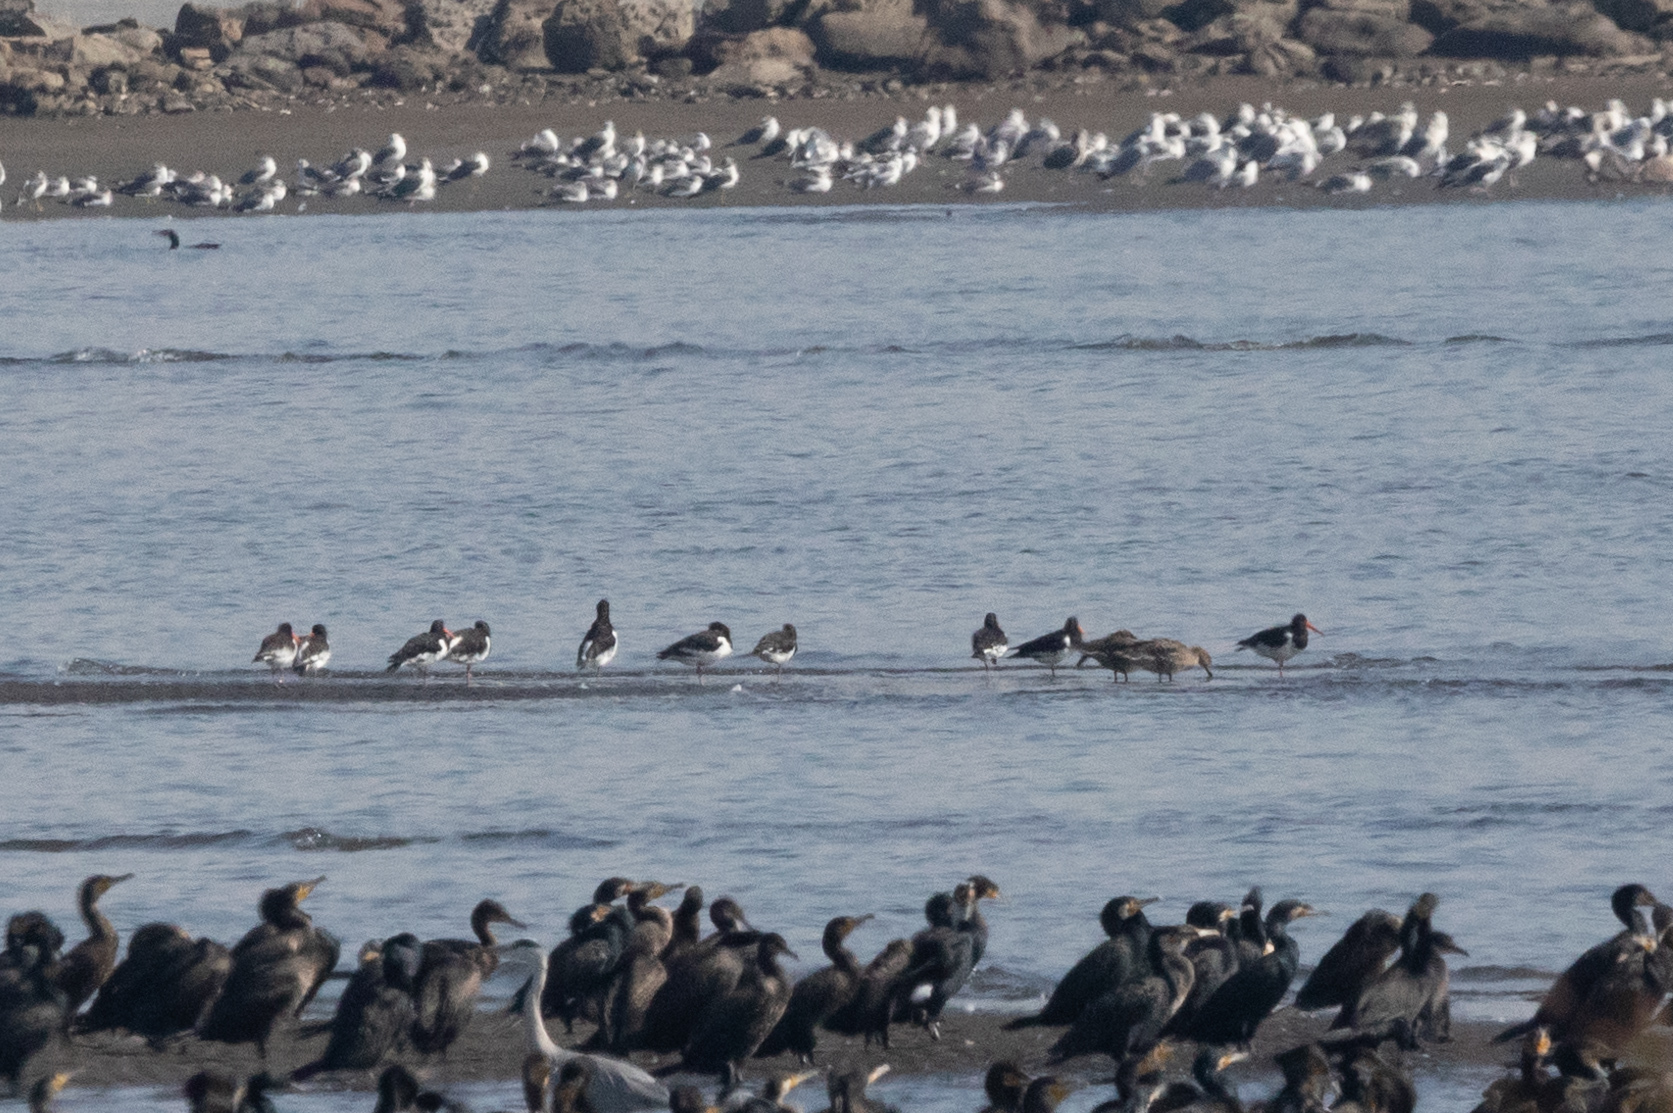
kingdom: Animalia
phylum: Chordata
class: Aves
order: Charadriiformes
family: Haematopodidae
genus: Haematopus
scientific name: Haematopus ostralegus
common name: Eurasian oystercatcher
